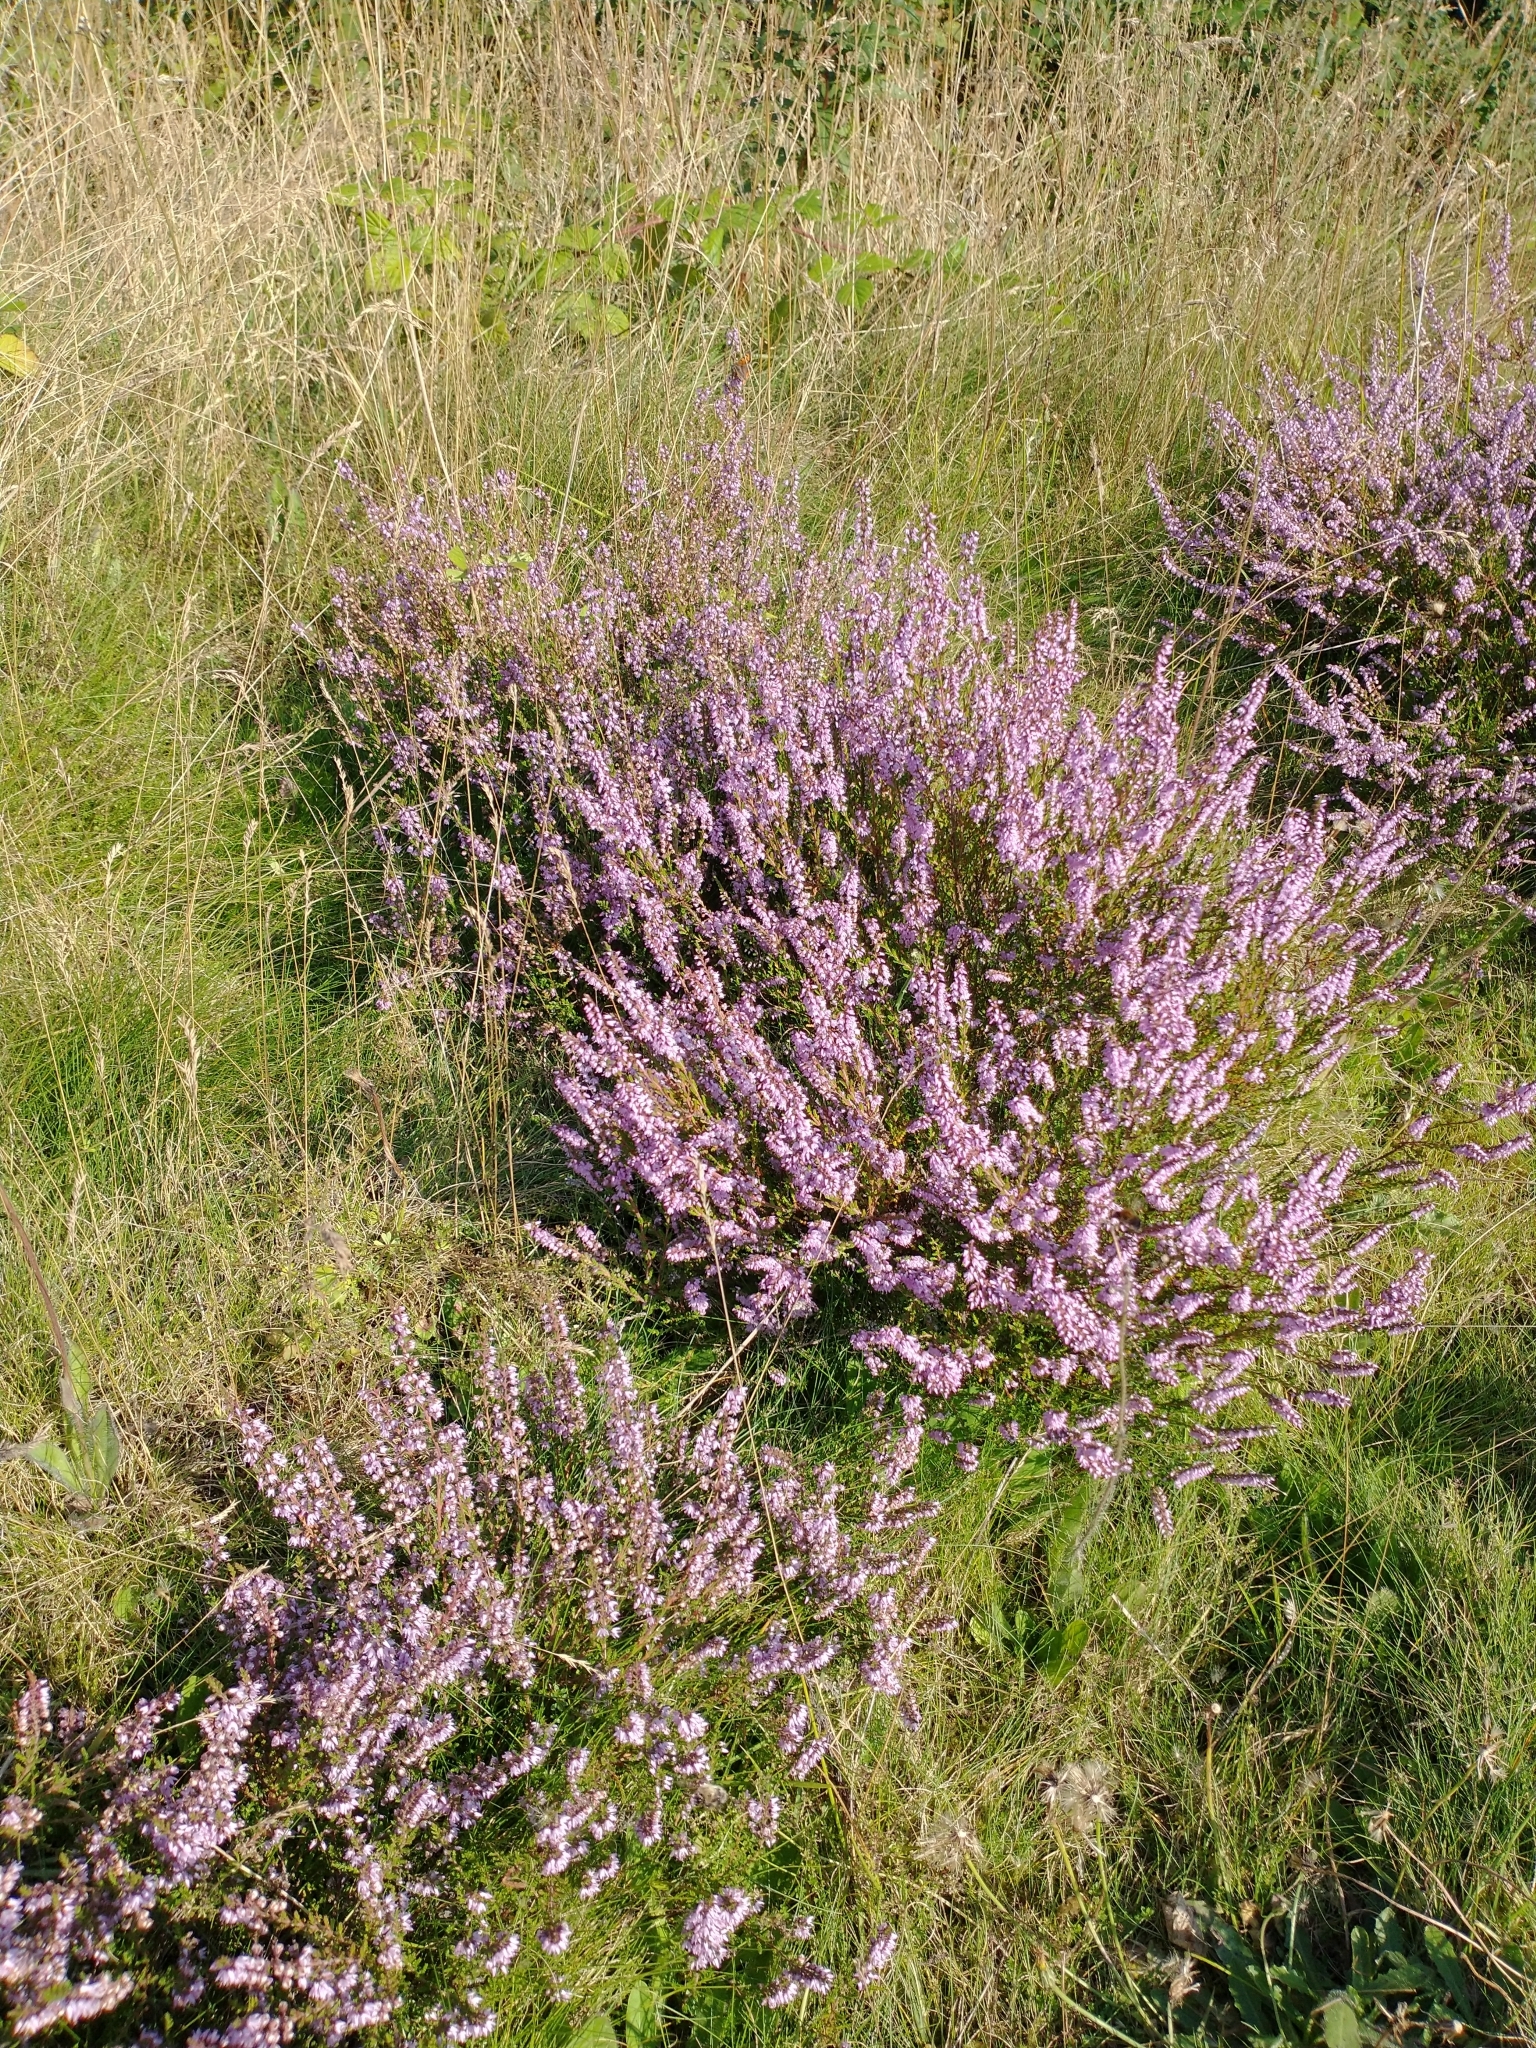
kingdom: Plantae
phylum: Tracheophyta
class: Magnoliopsida
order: Ericales
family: Ericaceae
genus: Calluna
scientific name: Calluna vulgaris
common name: Heather
